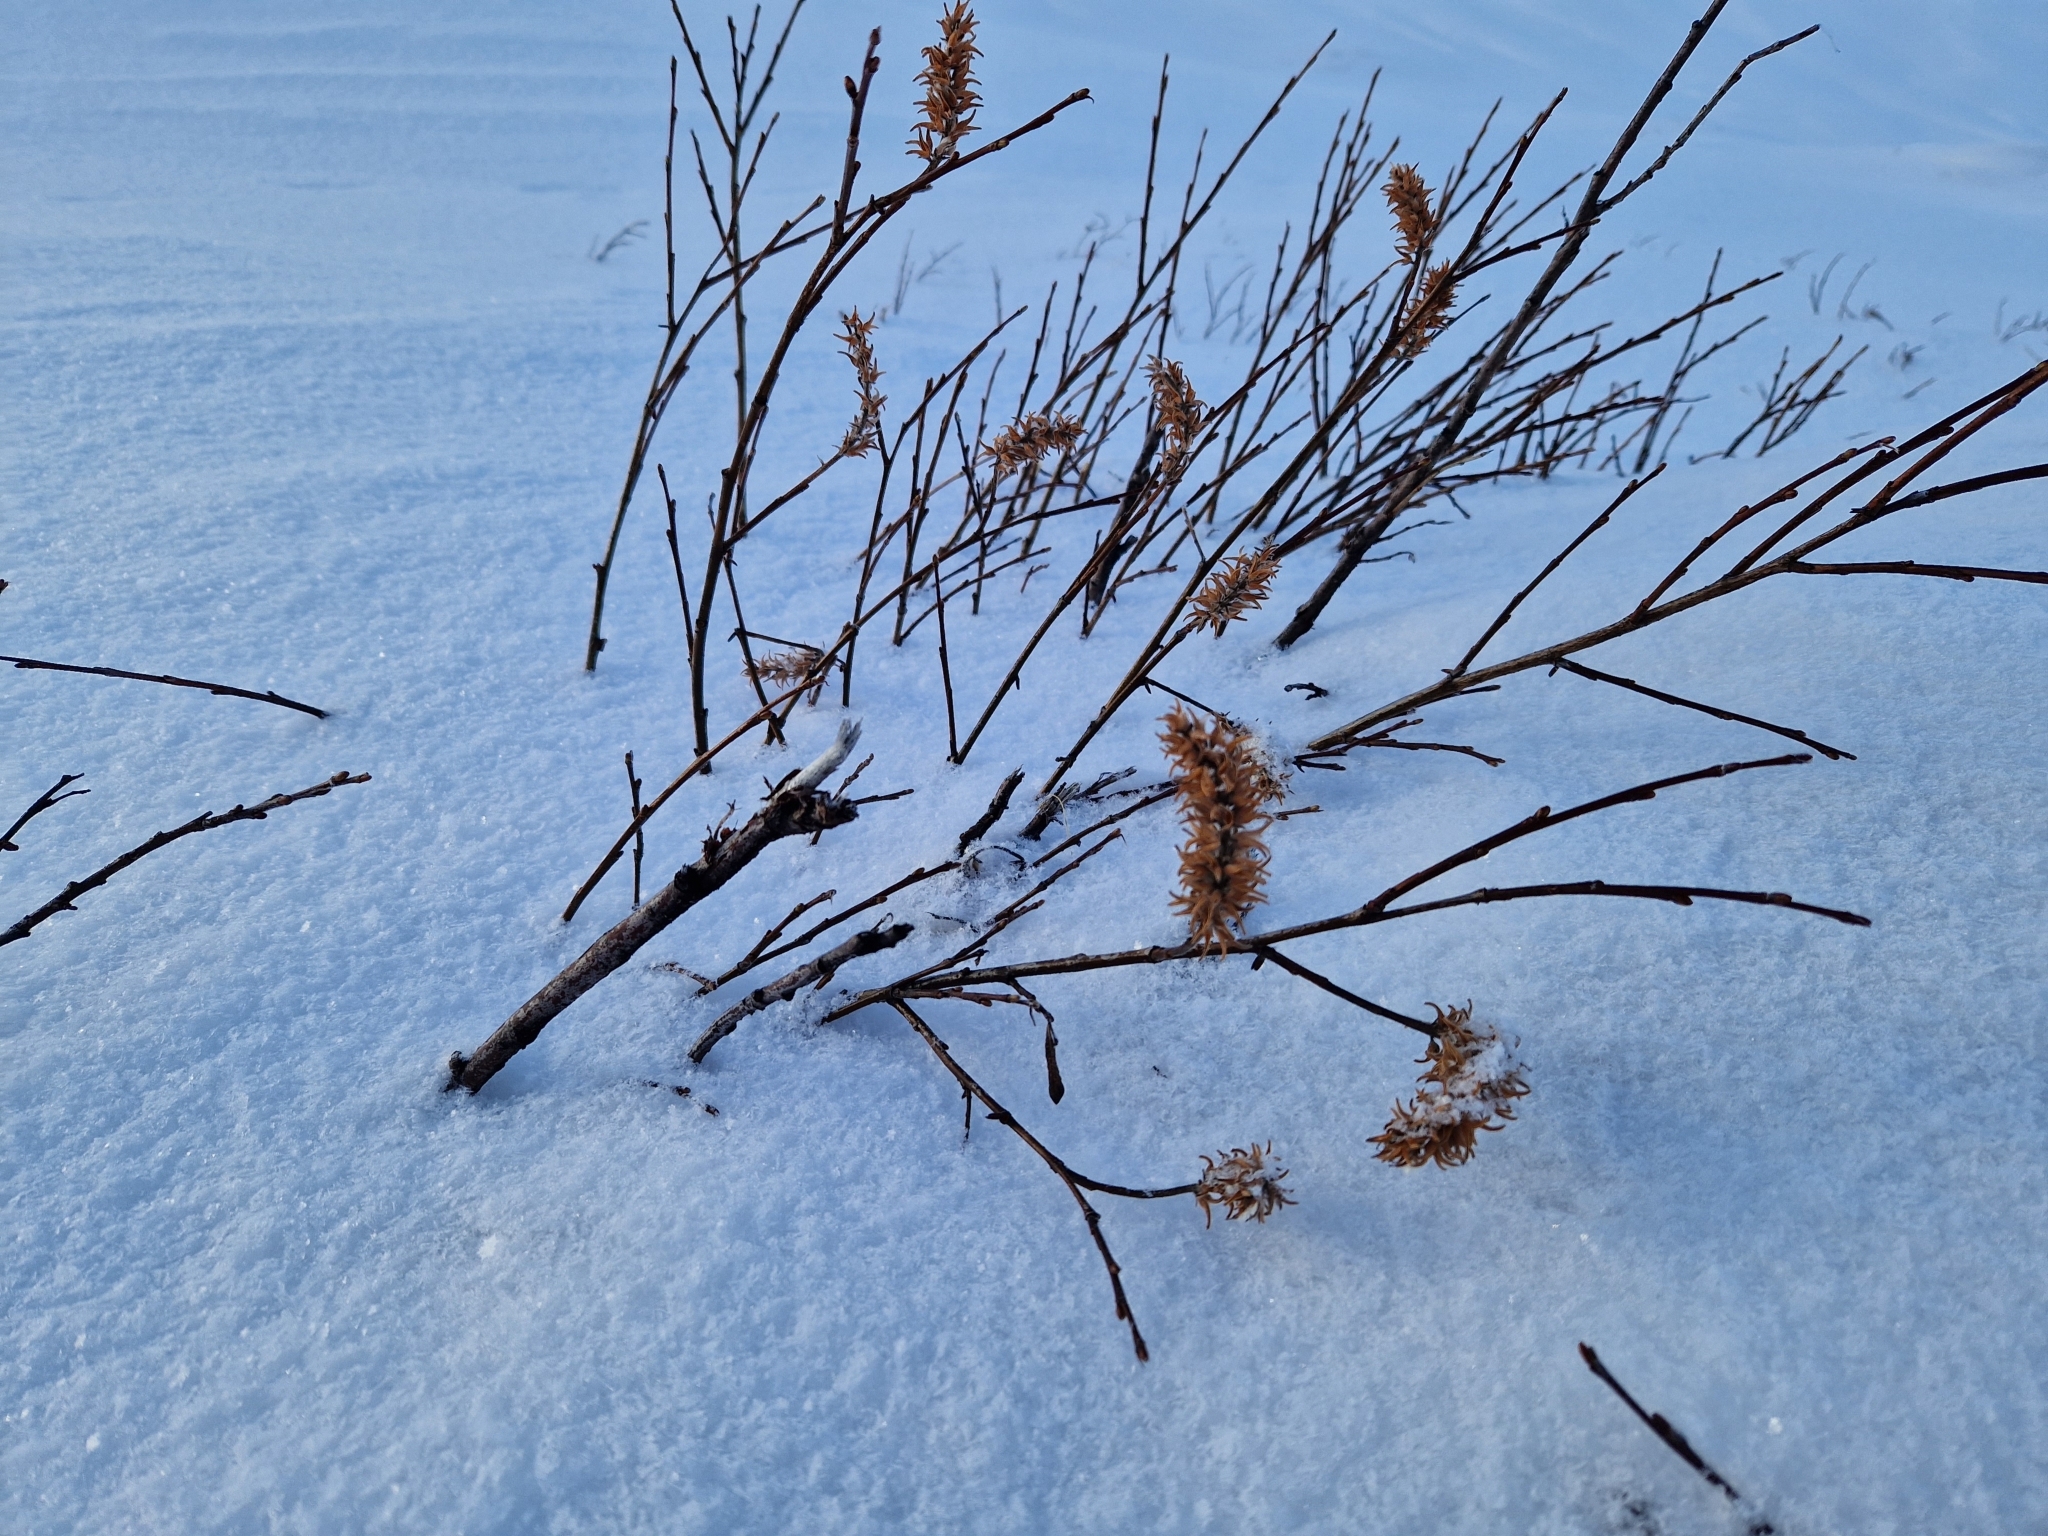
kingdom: Plantae
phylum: Tracheophyta
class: Magnoliopsida
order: Malpighiales
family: Salicaceae
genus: Salix
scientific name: Salix glauca
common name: Glaucous willow
